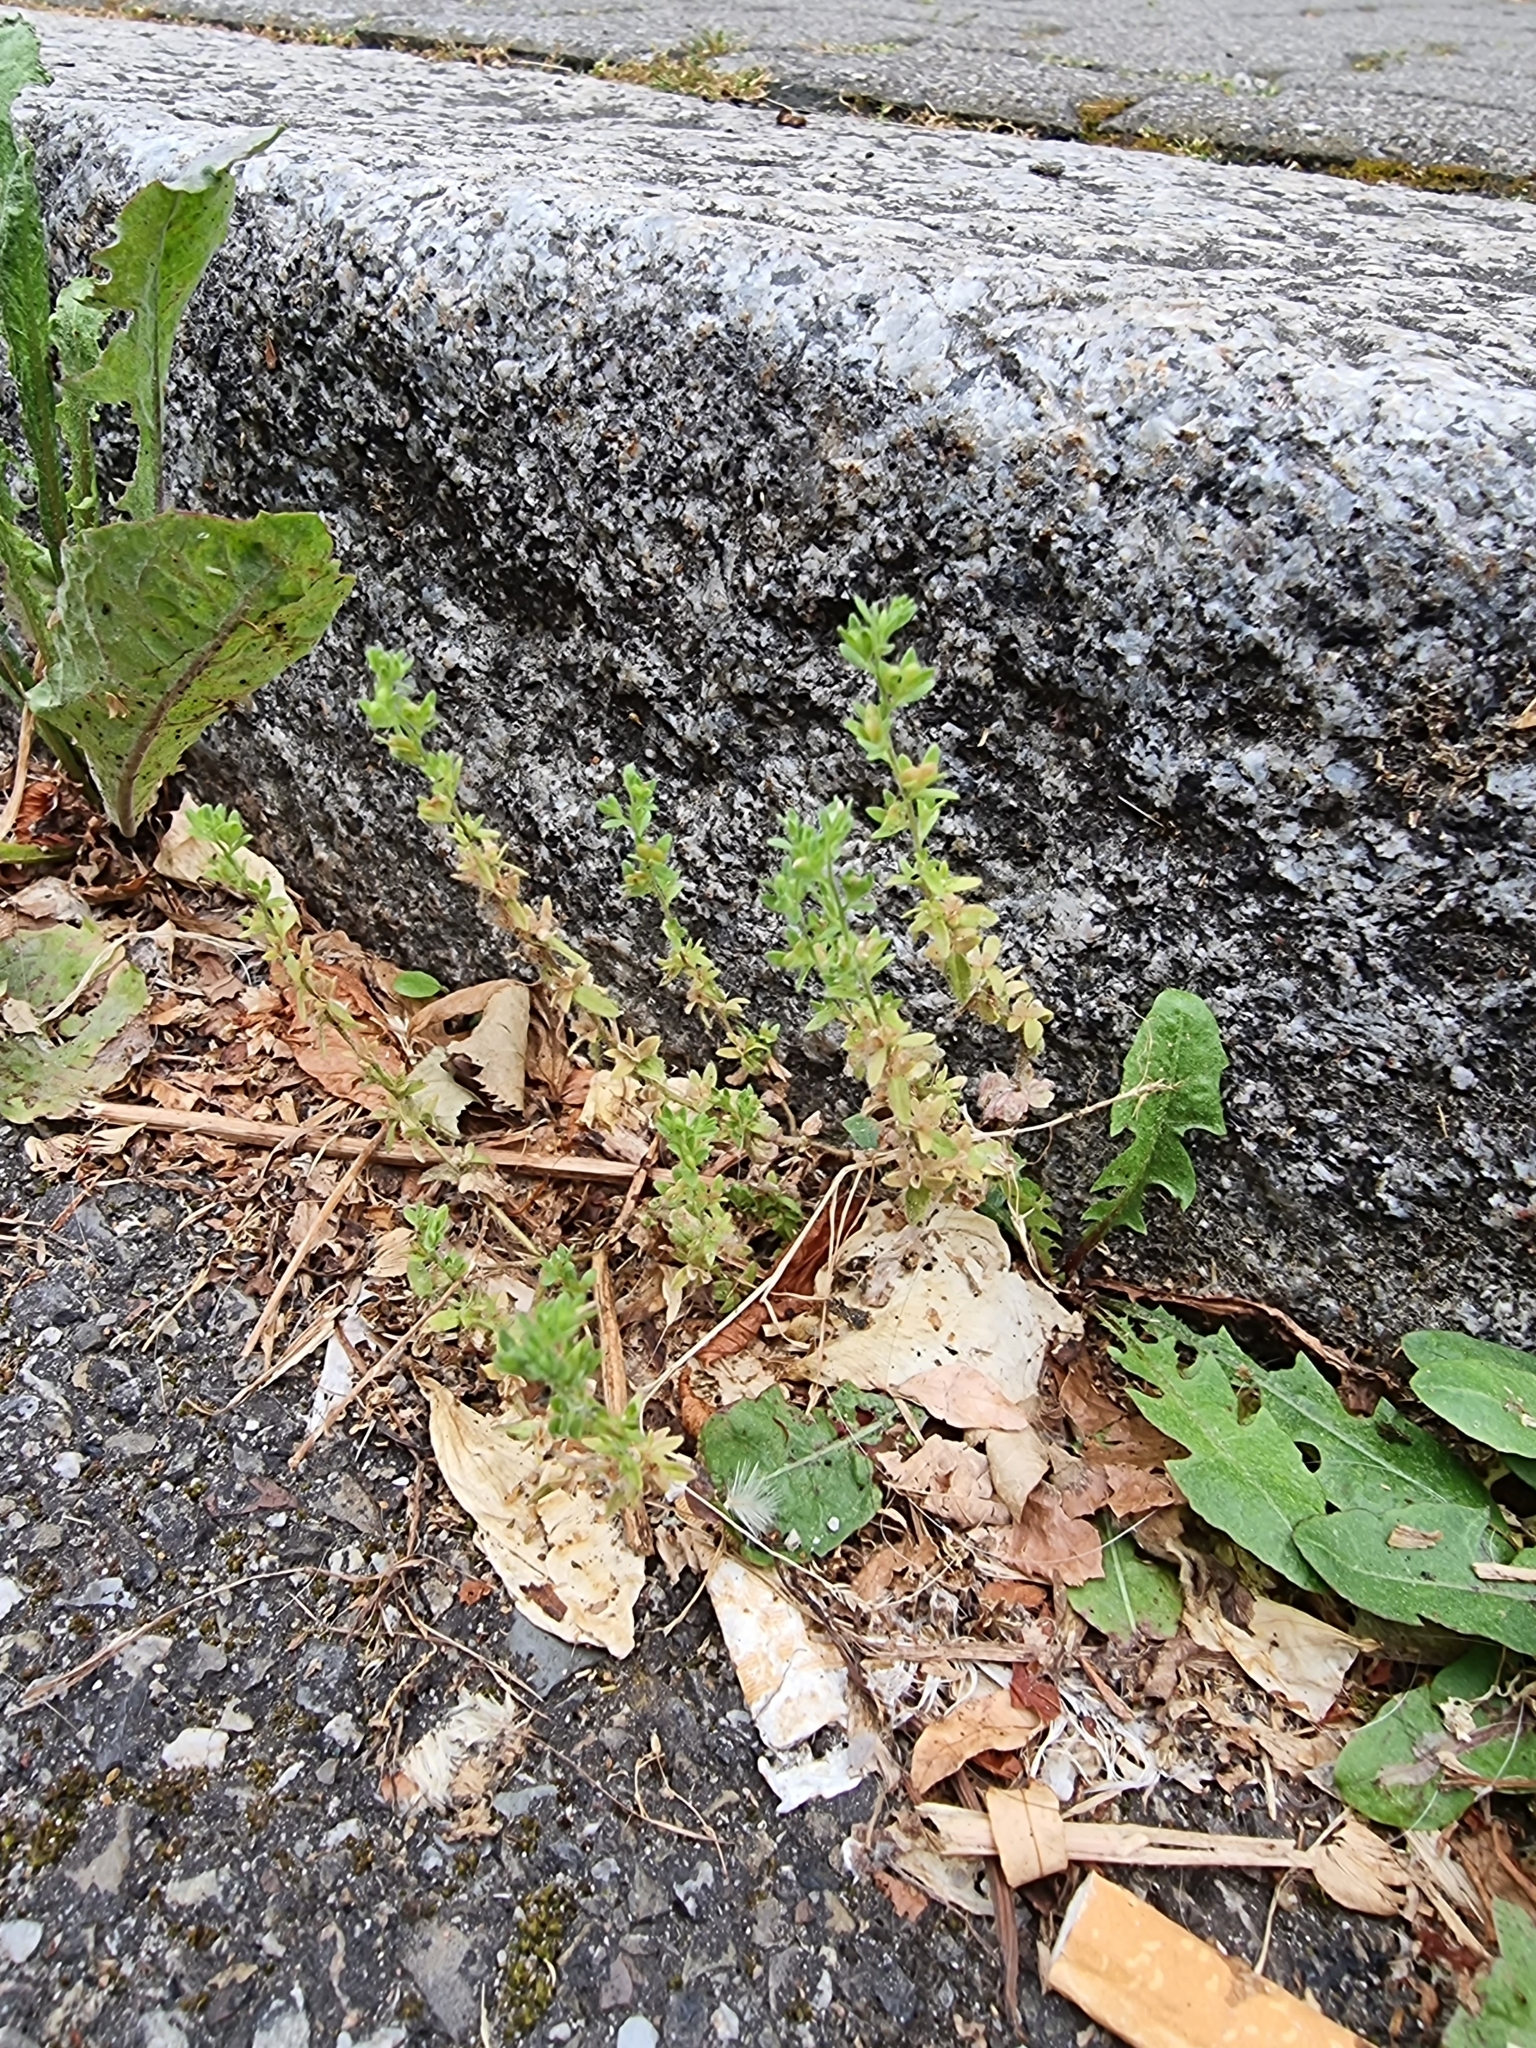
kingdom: Plantae
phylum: Tracheophyta
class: Magnoliopsida
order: Lamiales
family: Plantaginaceae
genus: Veronica
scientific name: Veronica arvensis
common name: Corn speedwell
